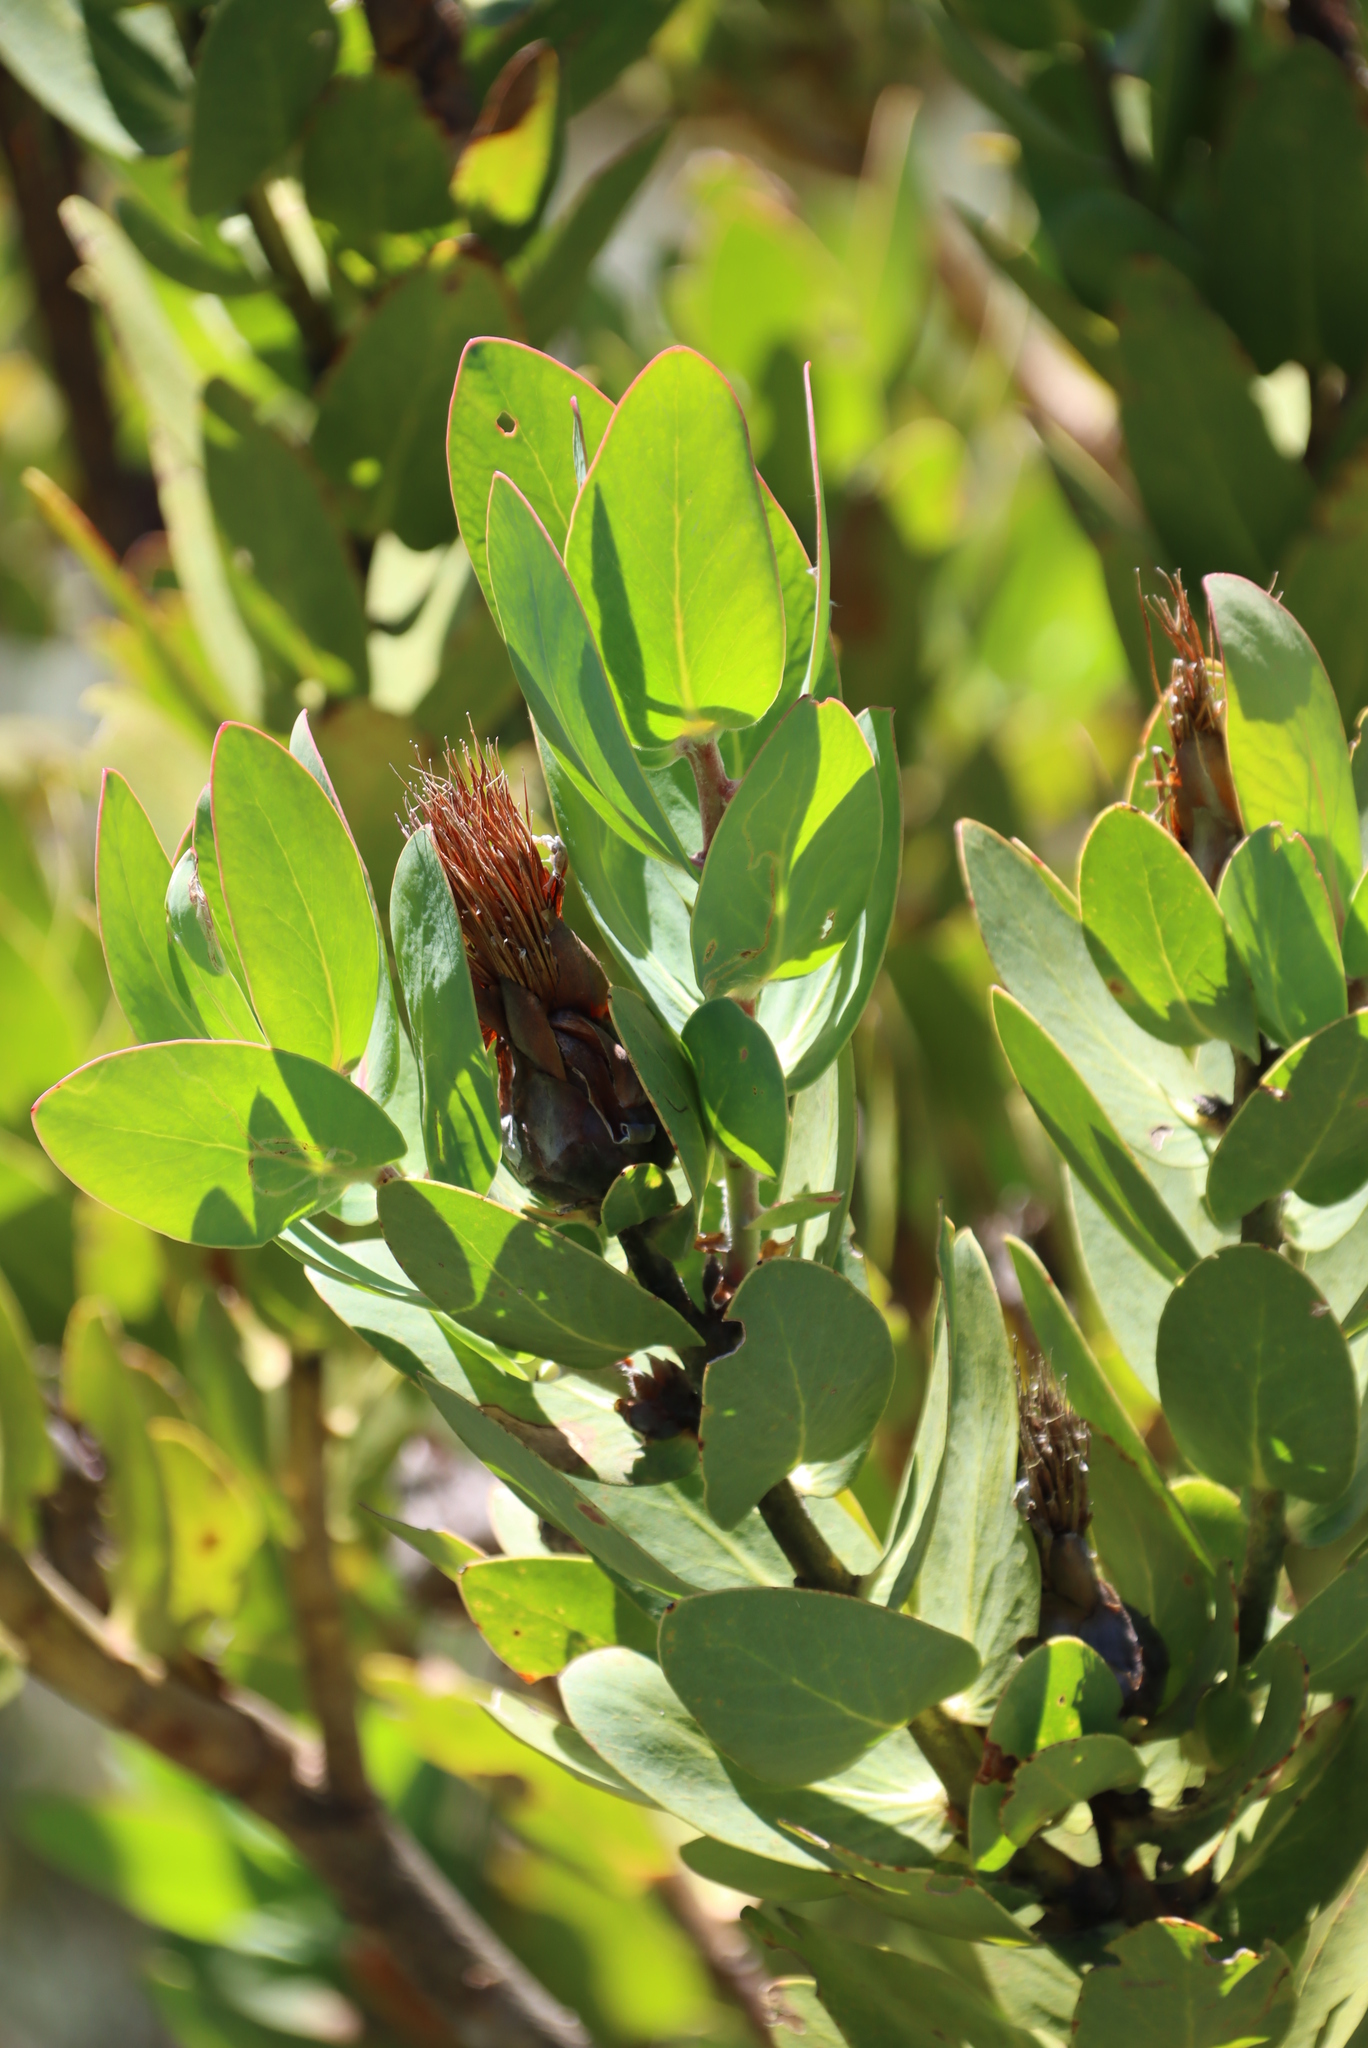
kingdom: Plantae
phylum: Tracheophyta
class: Magnoliopsida
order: Proteales
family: Proteaceae
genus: Protea
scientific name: Protea lacticolor
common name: Hottentot sugarbush
